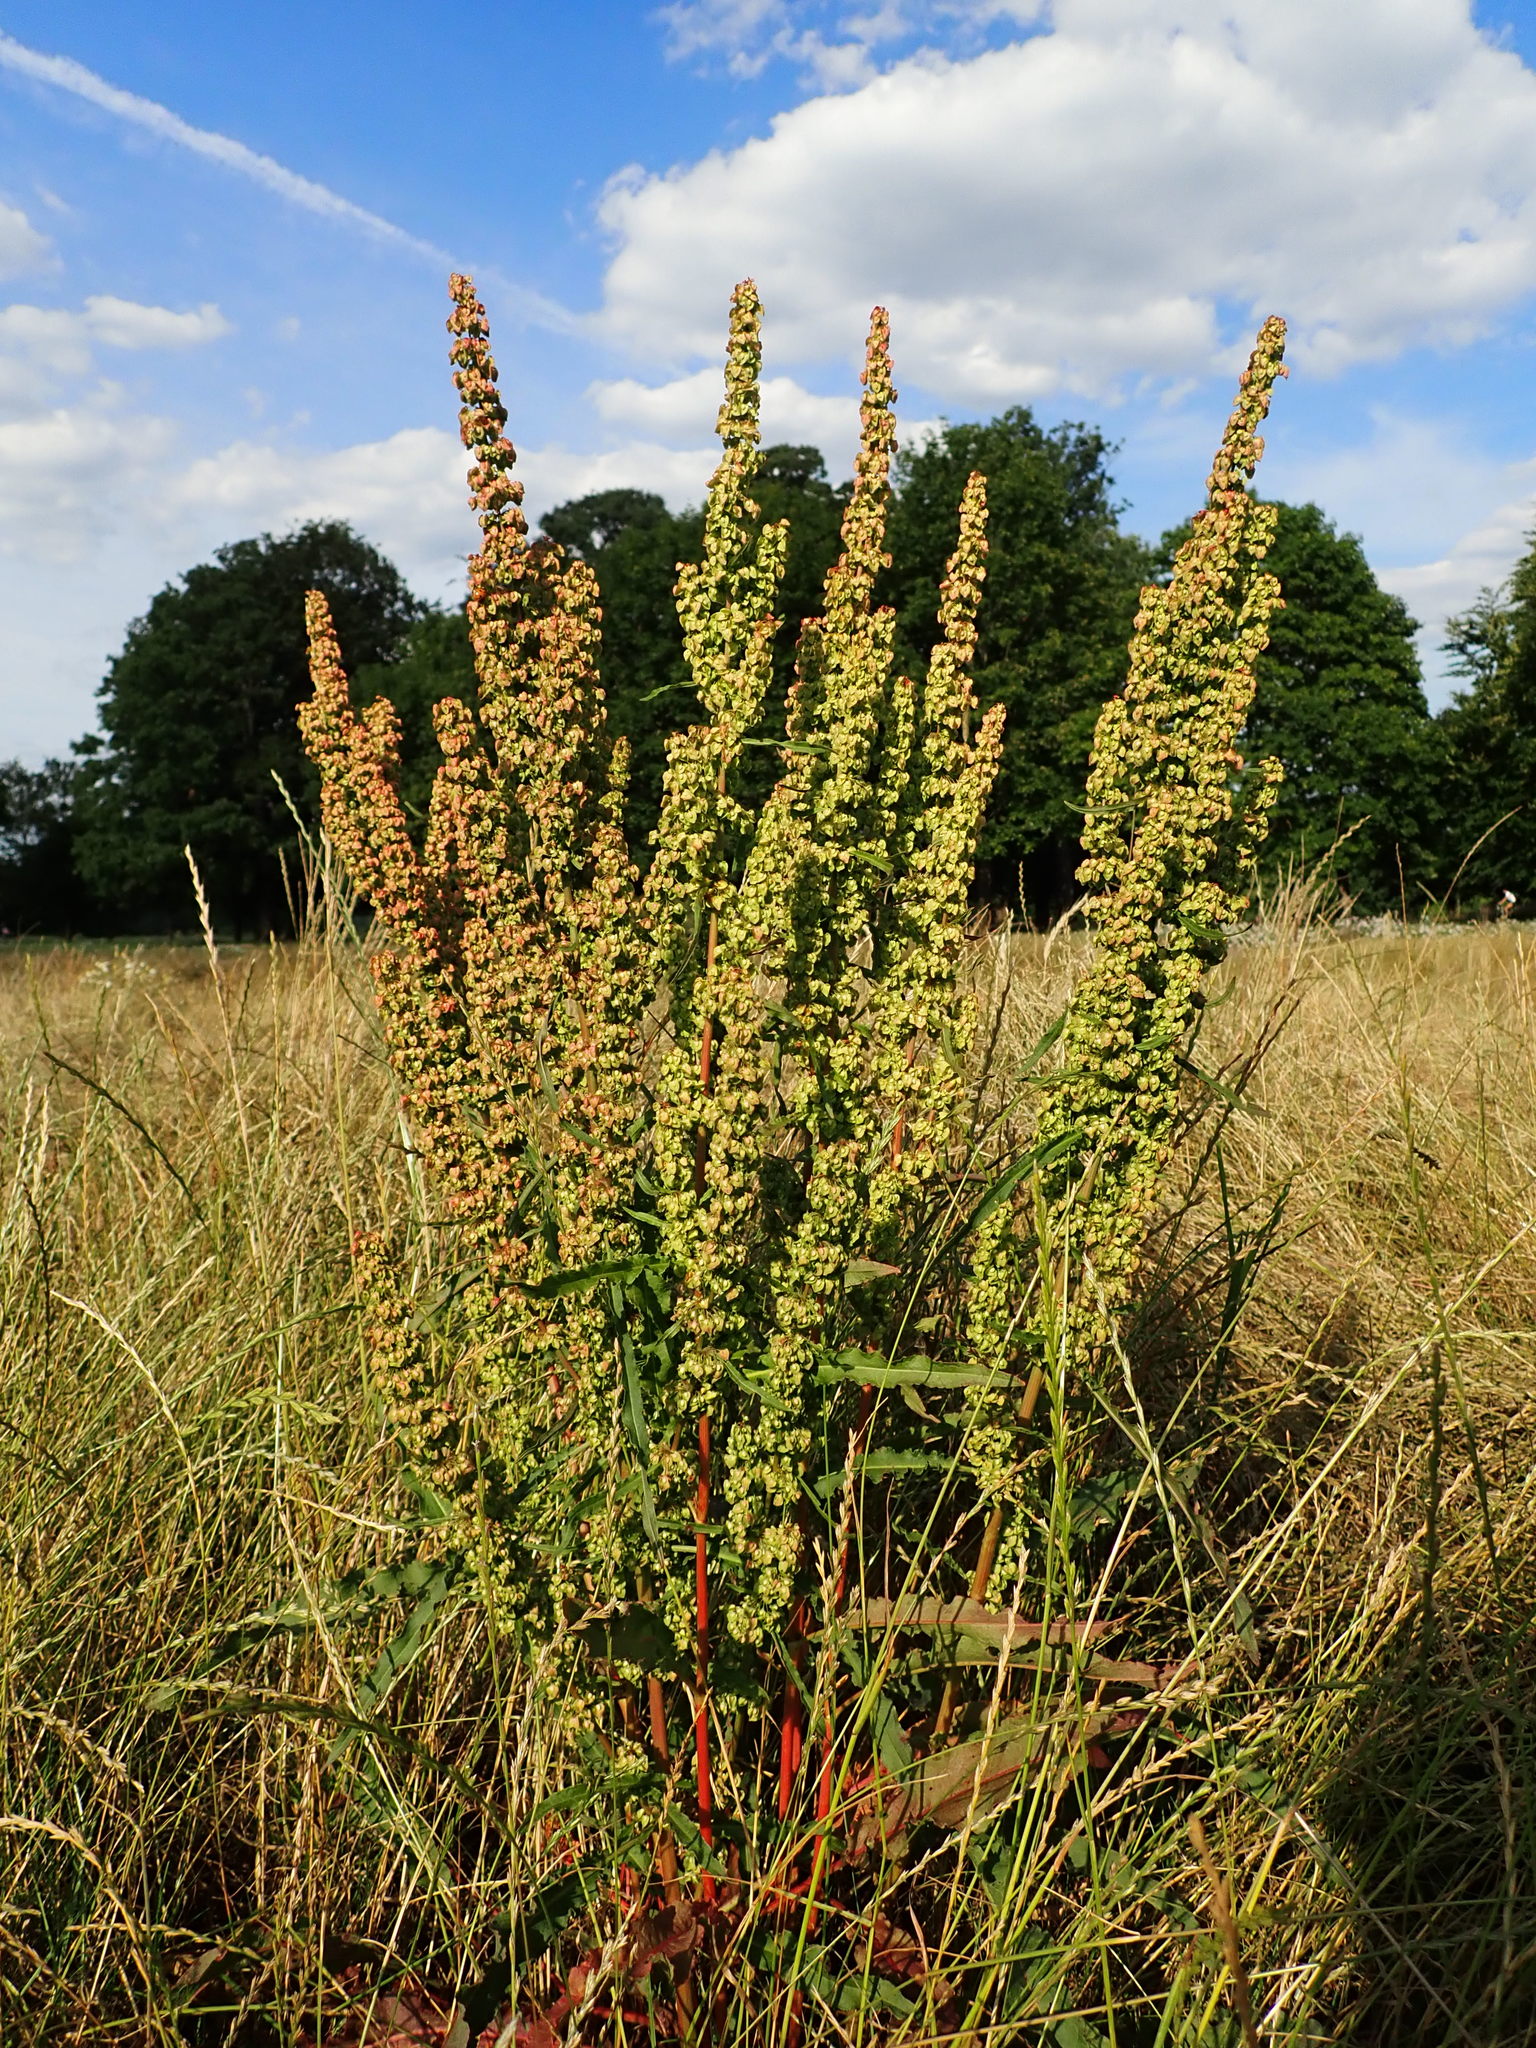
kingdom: Plantae
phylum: Tracheophyta
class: Magnoliopsida
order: Caryophyllales
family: Polygonaceae
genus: Rumex
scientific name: Rumex crispus
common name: Curled dock
